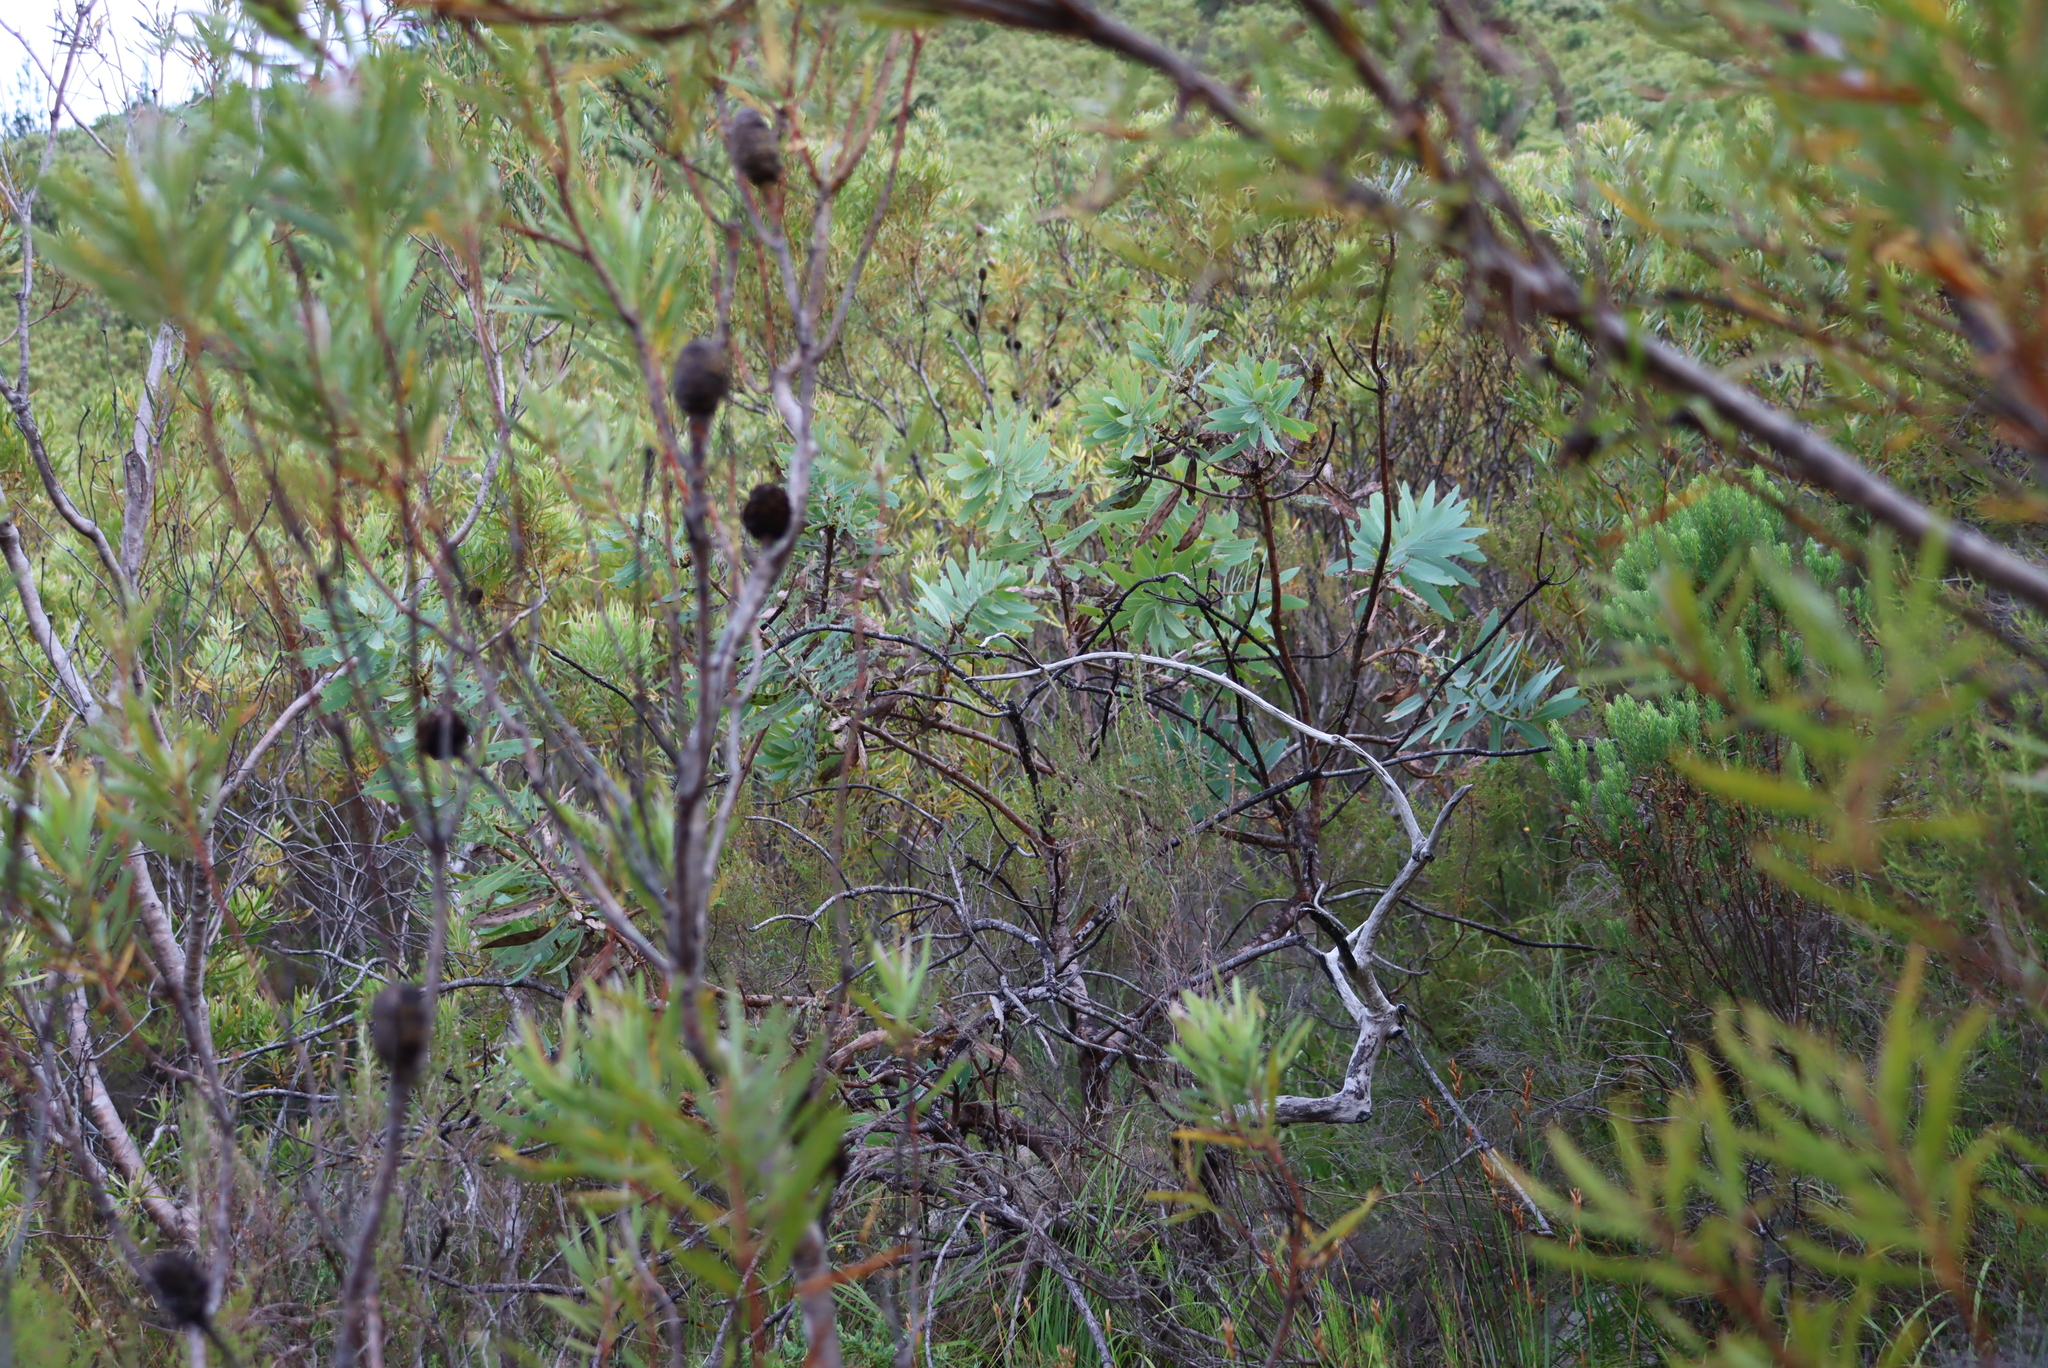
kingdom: Plantae
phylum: Tracheophyta
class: Magnoliopsida
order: Proteales
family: Proteaceae
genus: Protea
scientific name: Protea nitida
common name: Tree protea
